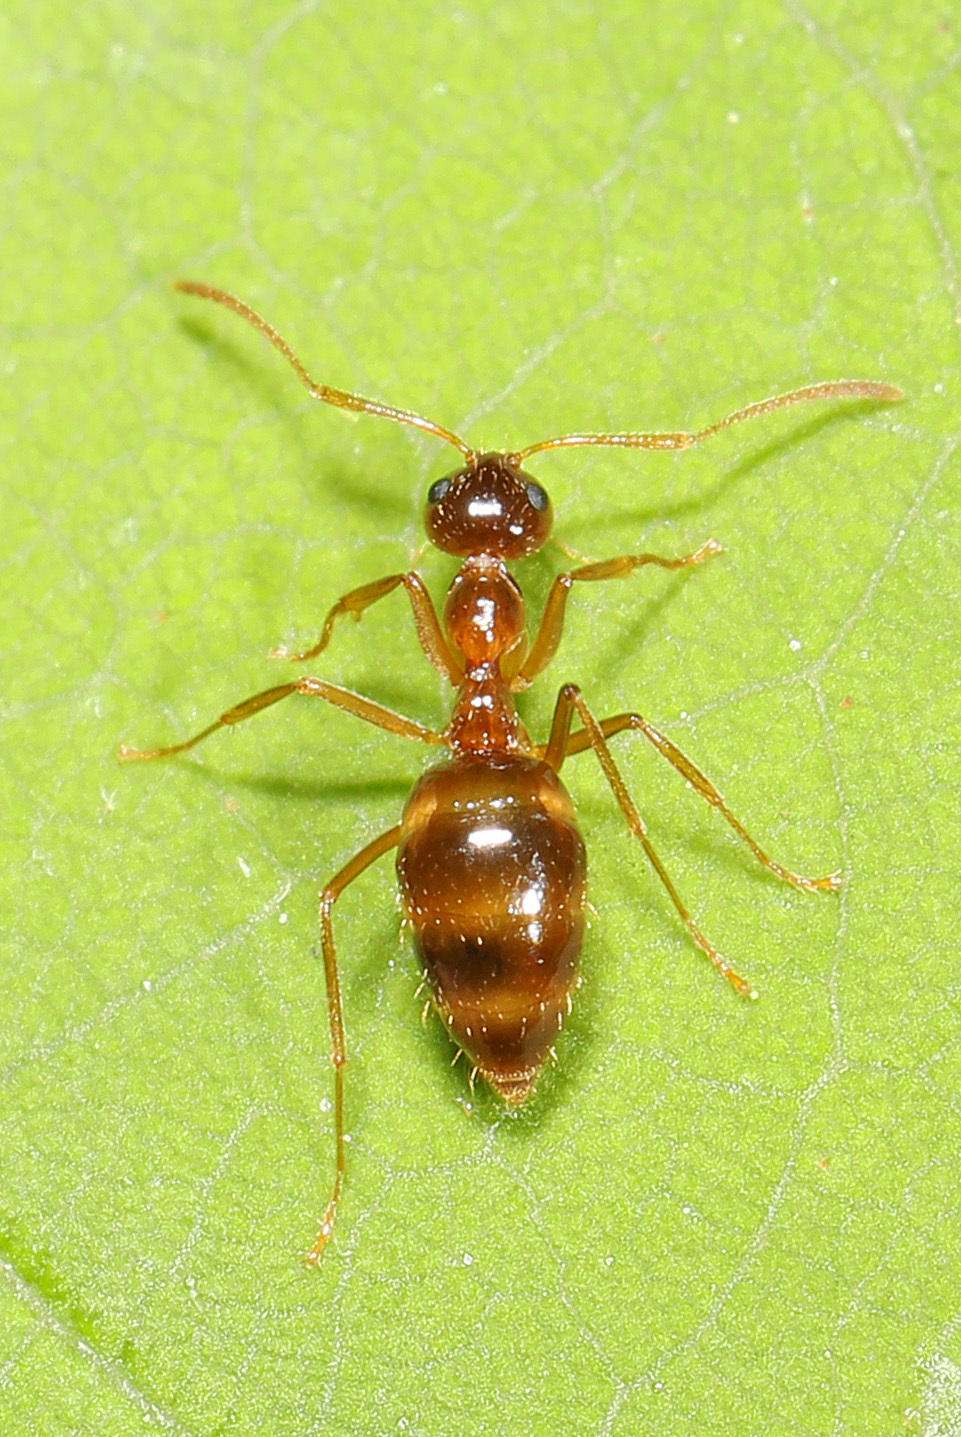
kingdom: Animalia
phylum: Arthropoda
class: Insecta
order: Hymenoptera
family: Formicidae
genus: Prenolepis
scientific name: Prenolepis imparis
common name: Small honey ant
